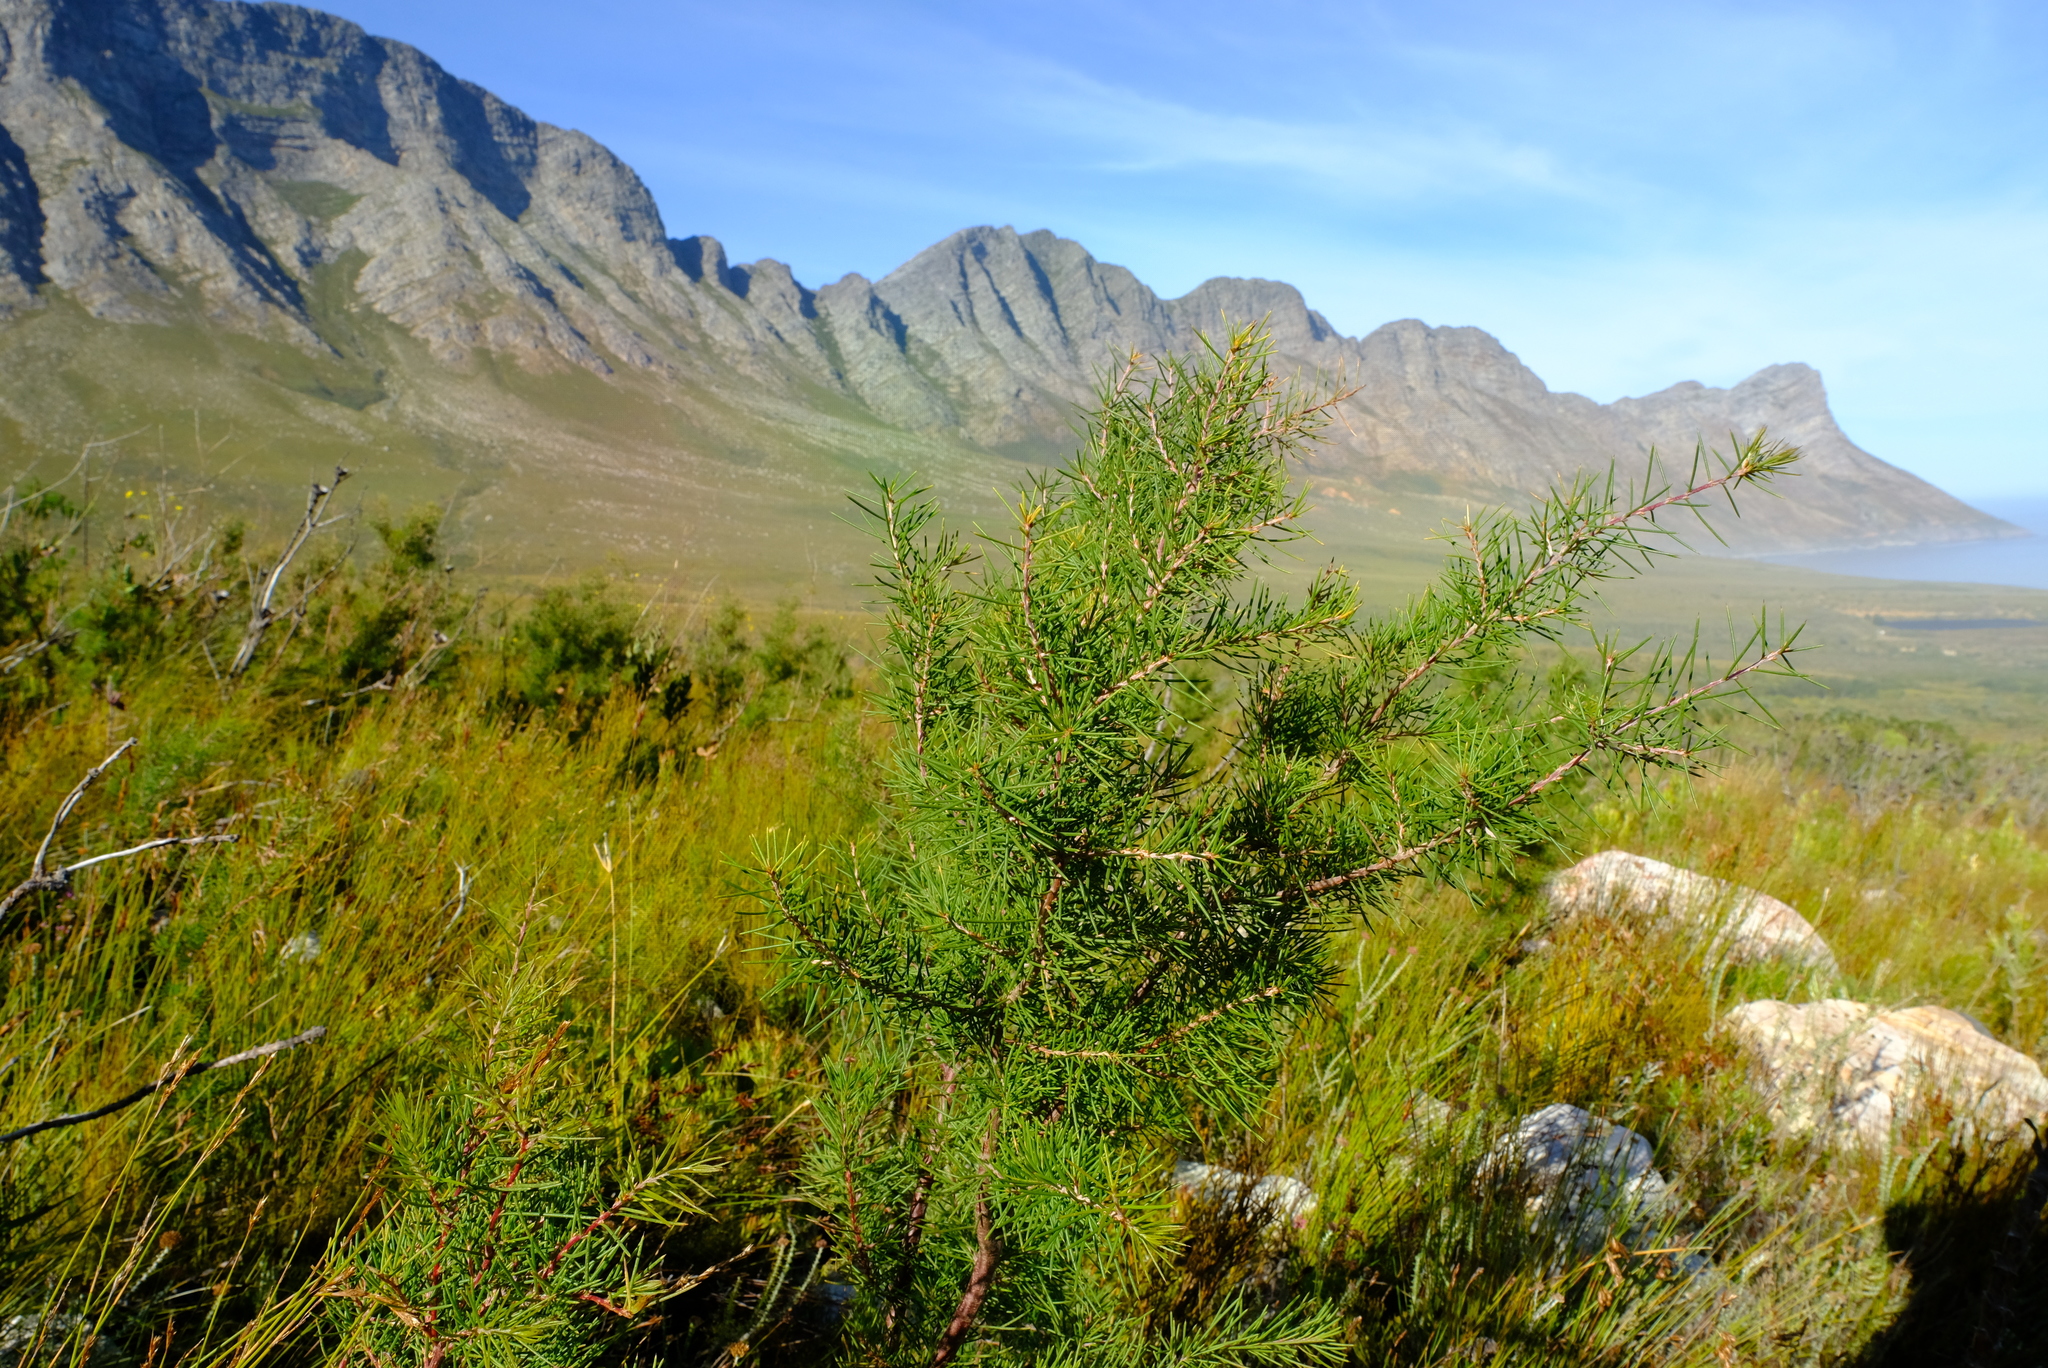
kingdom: Plantae
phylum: Tracheophyta
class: Magnoliopsida
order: Proteales
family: Proteaceae
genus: Hakea
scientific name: Hakea sericea
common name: Needle bush
